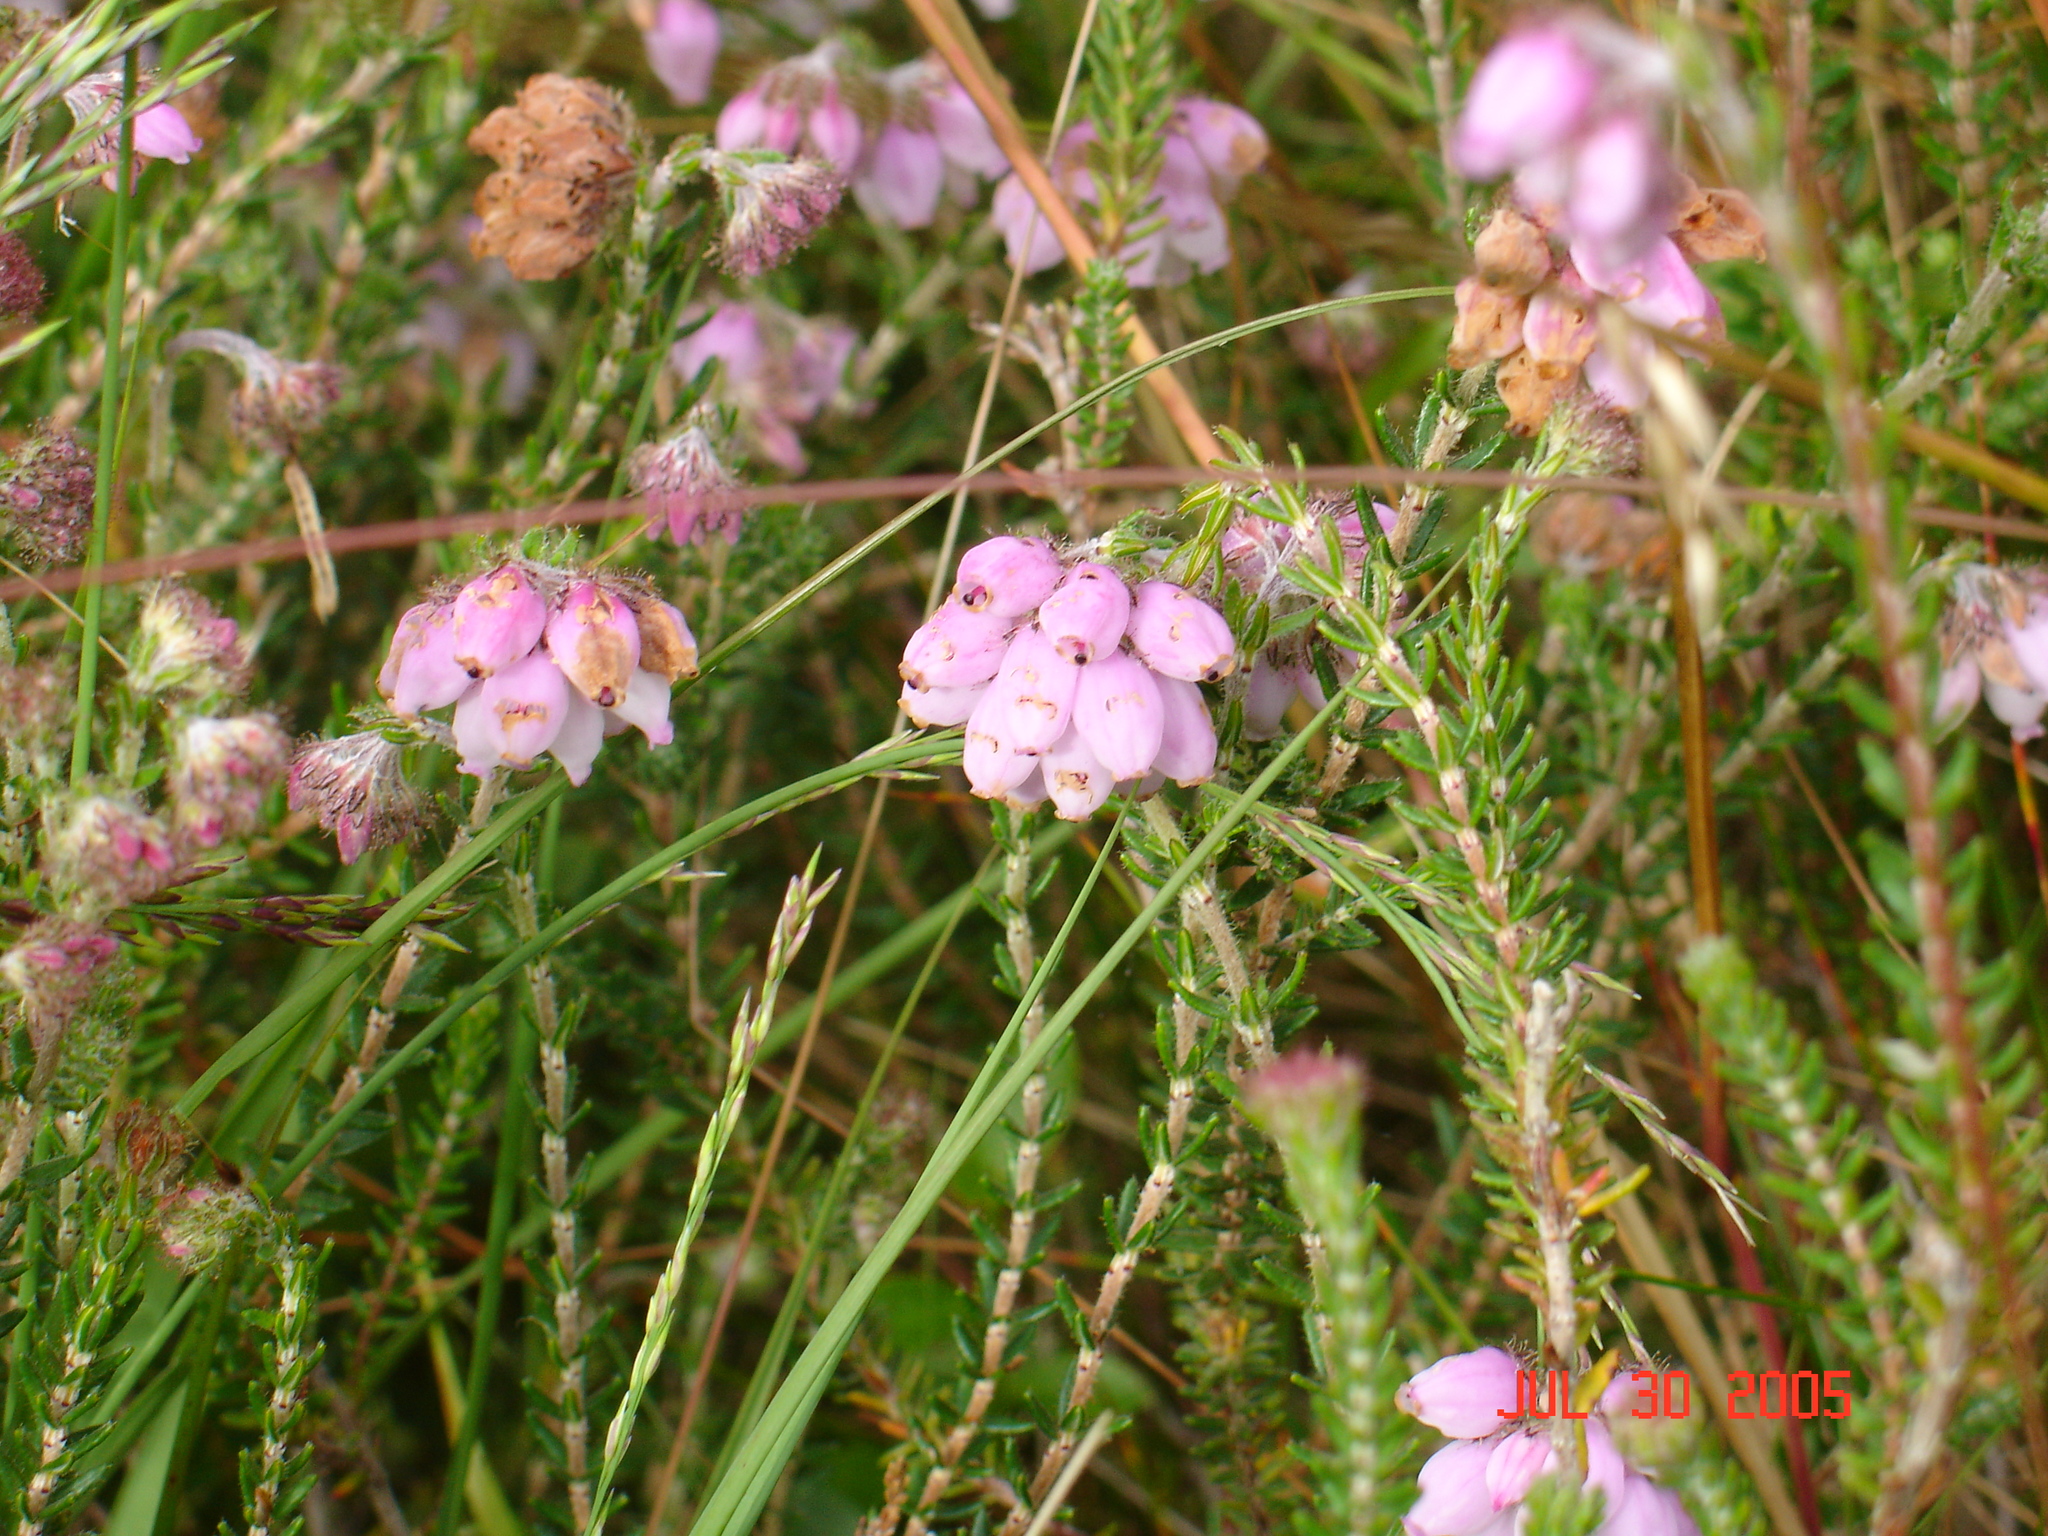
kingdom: Plantae
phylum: Tracheophyta
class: Magnoliopsida
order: Ericales
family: Ericaceae
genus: Erica
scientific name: Erica tetralix
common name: Cross-leaved heath
